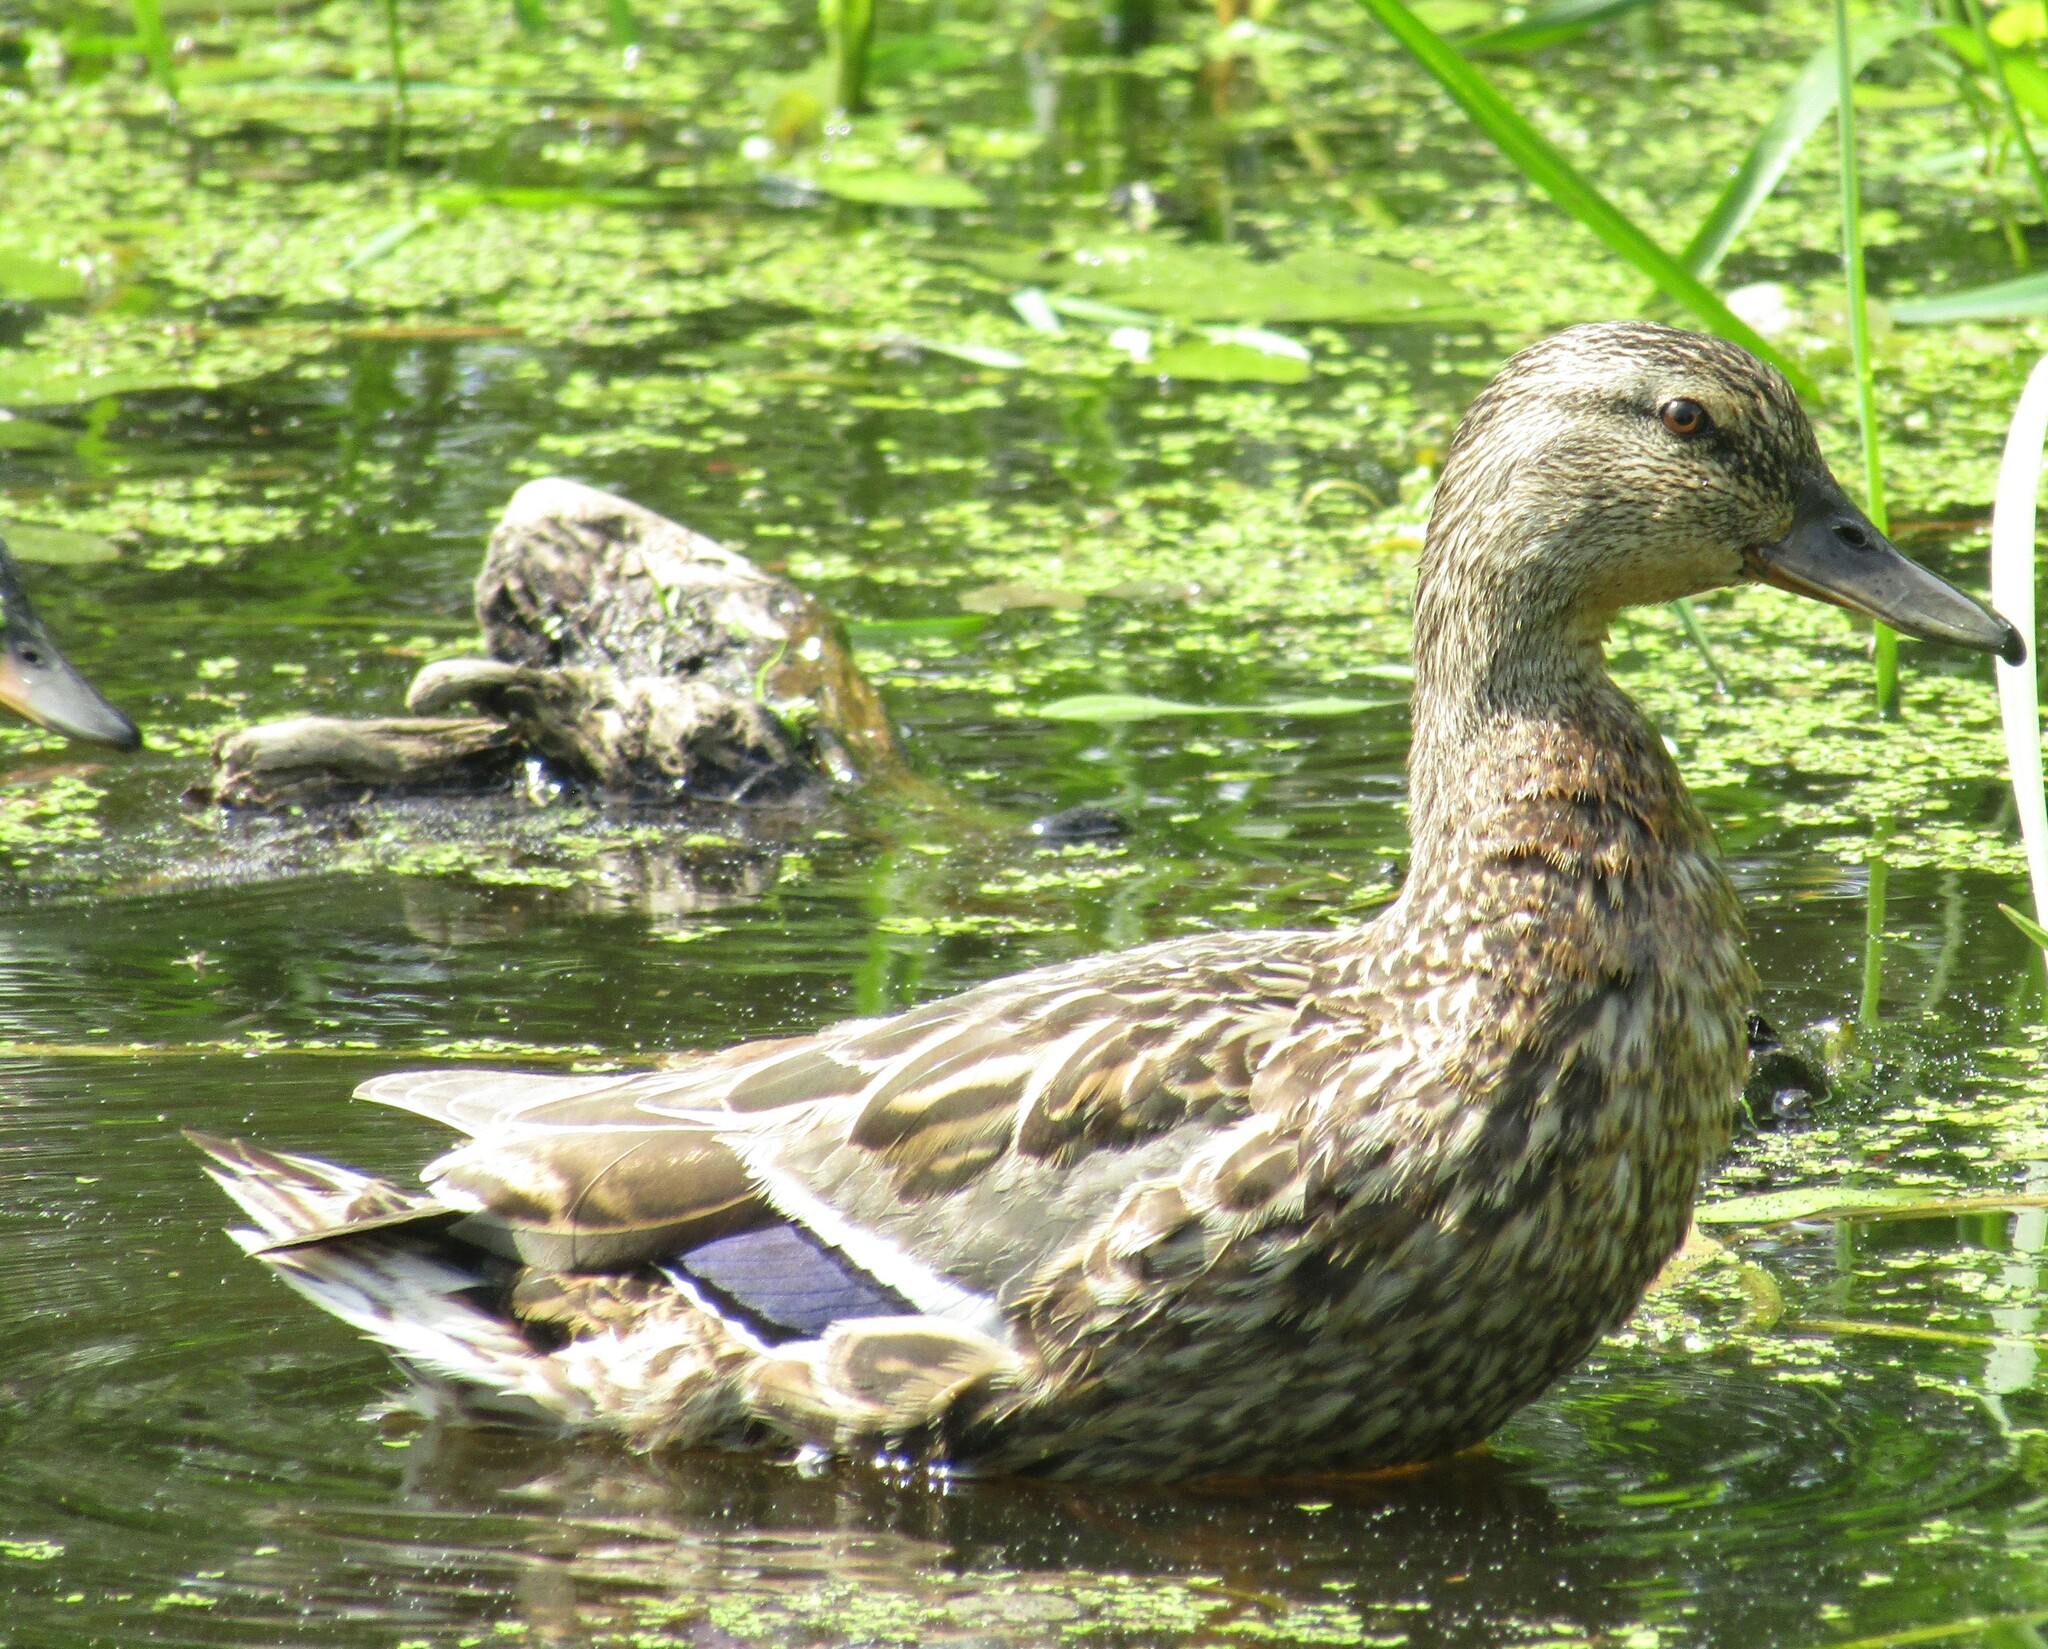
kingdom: Animalia
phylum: Chordata
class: Aves
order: Anseriformes
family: Anatidae
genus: Anas
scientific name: Anas platyrhynchos
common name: Mallard
